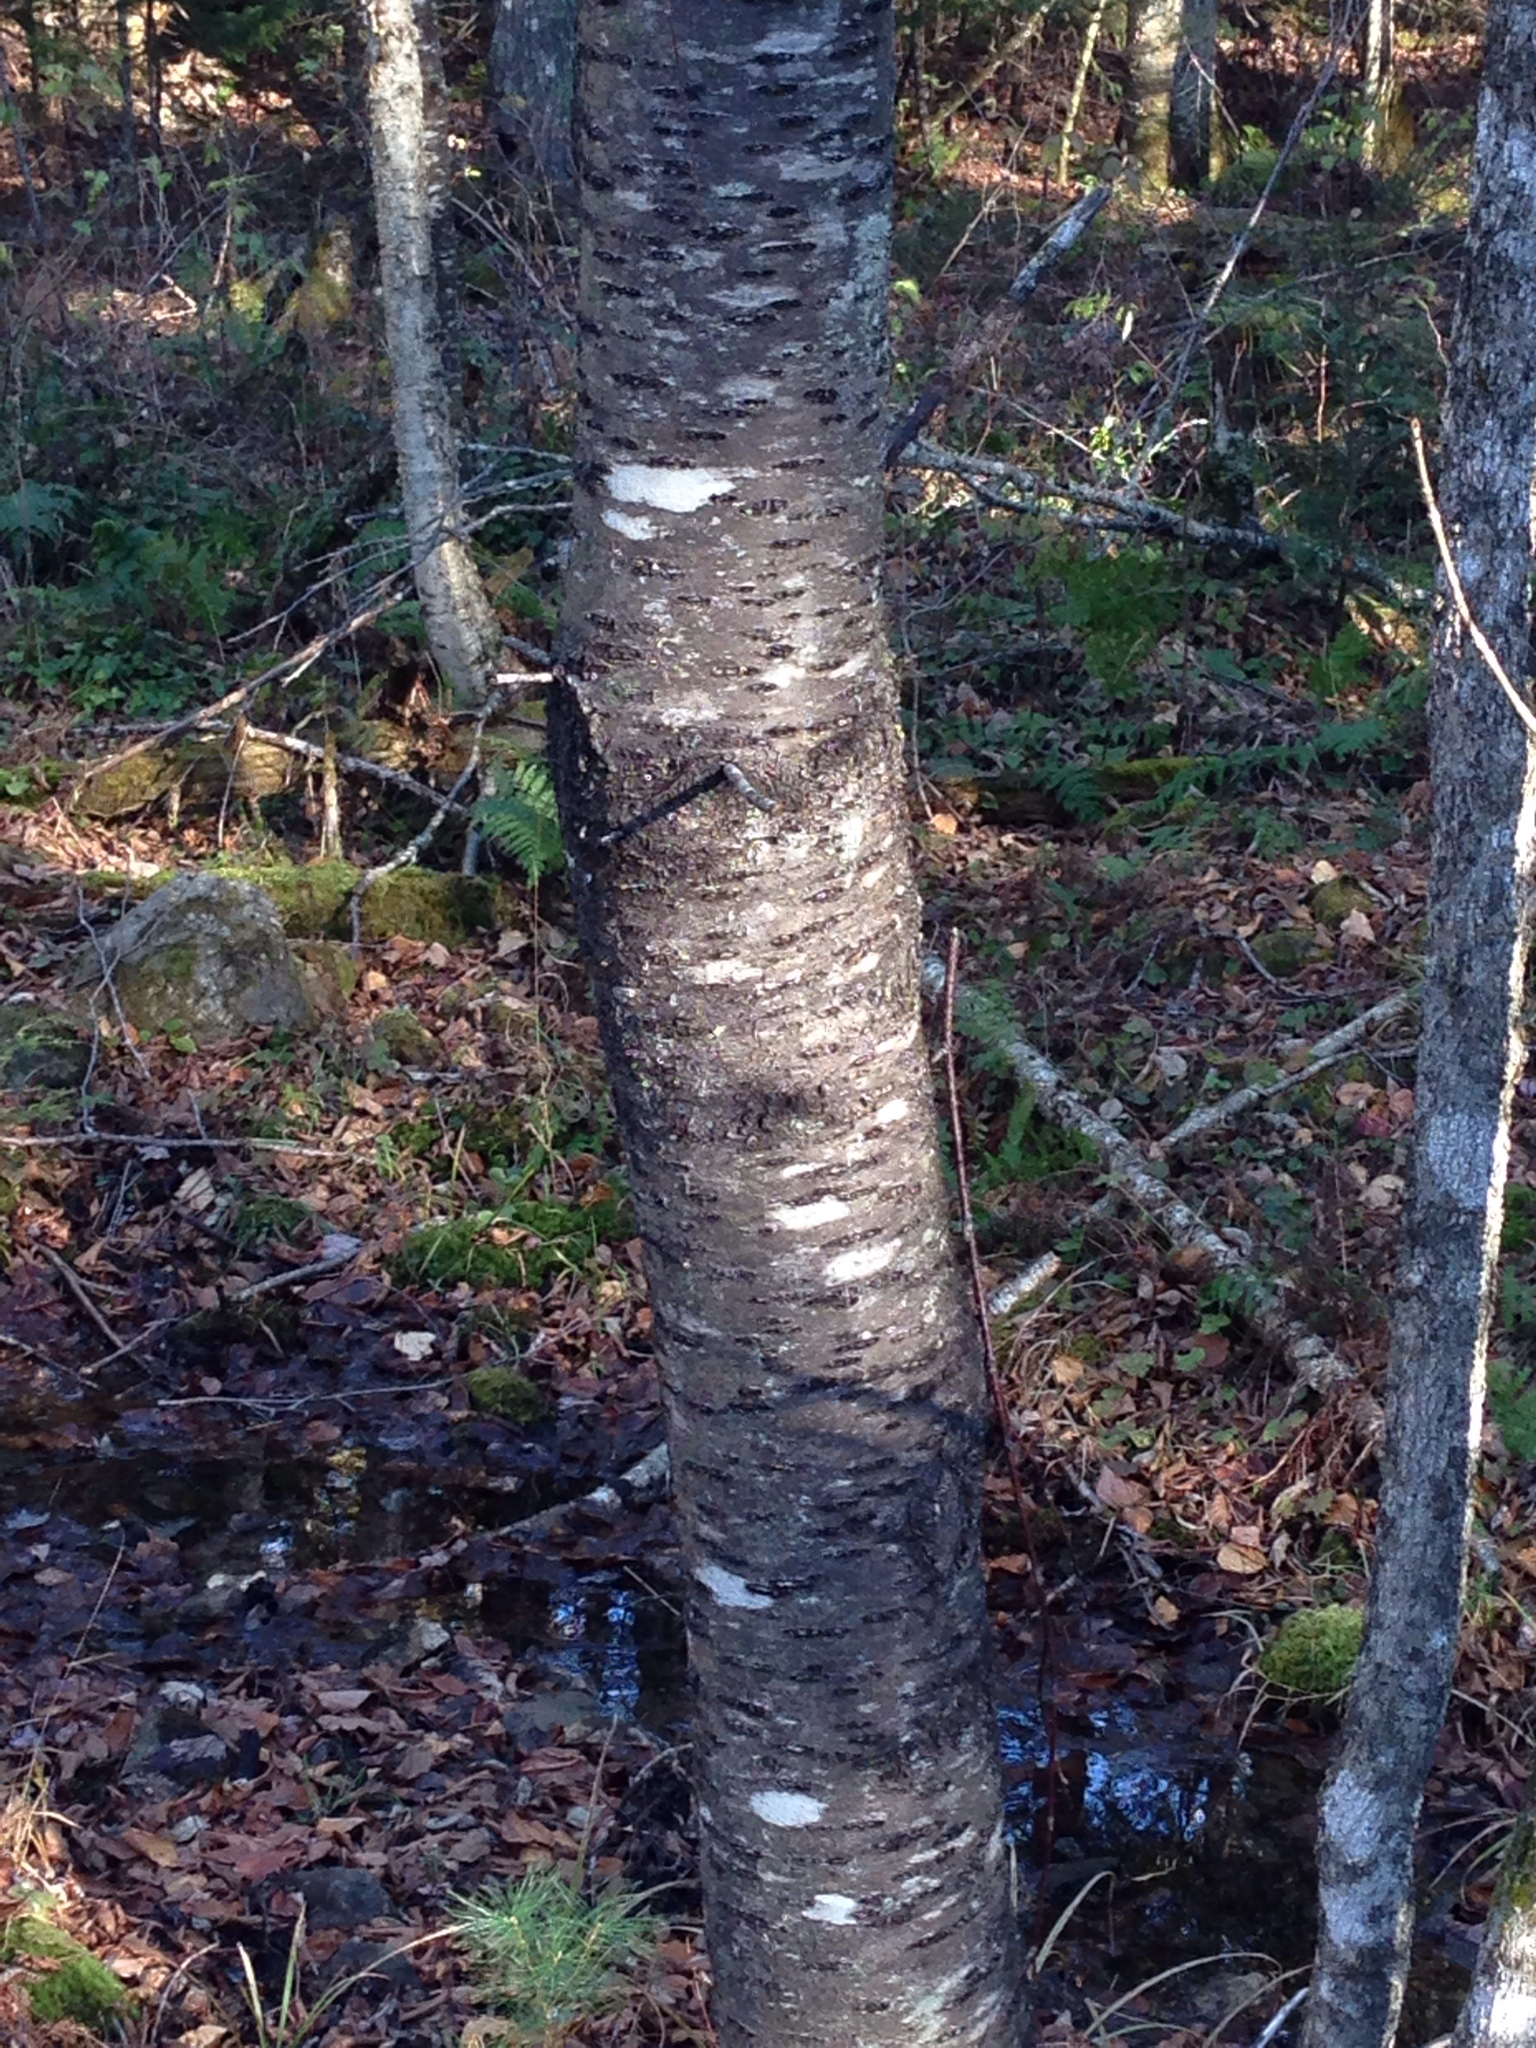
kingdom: Plantae
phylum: Tracheophyta
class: Magnoliopsida
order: Rosales
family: Rosaceae
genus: Prunus
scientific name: Prunus pensylvanica
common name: Pin cherry
